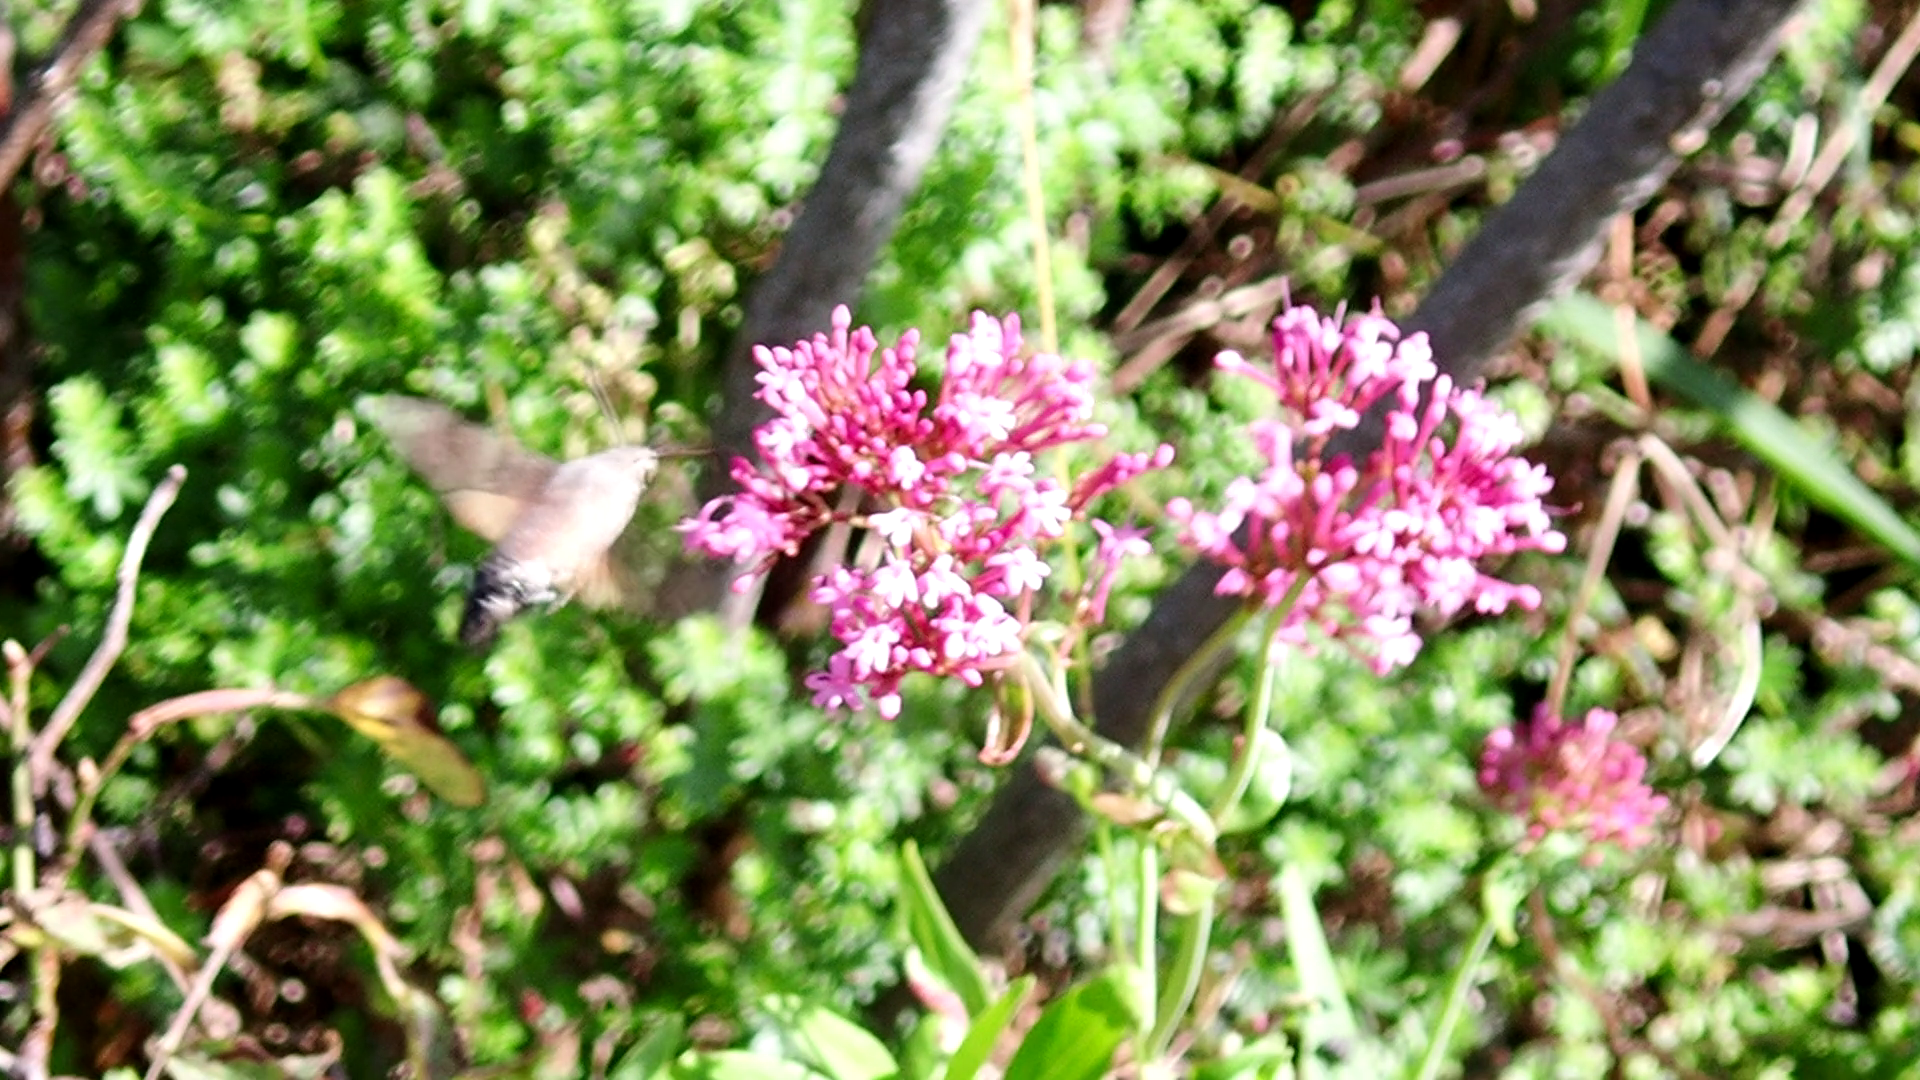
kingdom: Animalia
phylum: Arthropoda
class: Insecta
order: Lepidoptera
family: Sphingidae
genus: Macroglossum
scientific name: Macroglossum stellatarum
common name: Humming-bird hawk-moth
